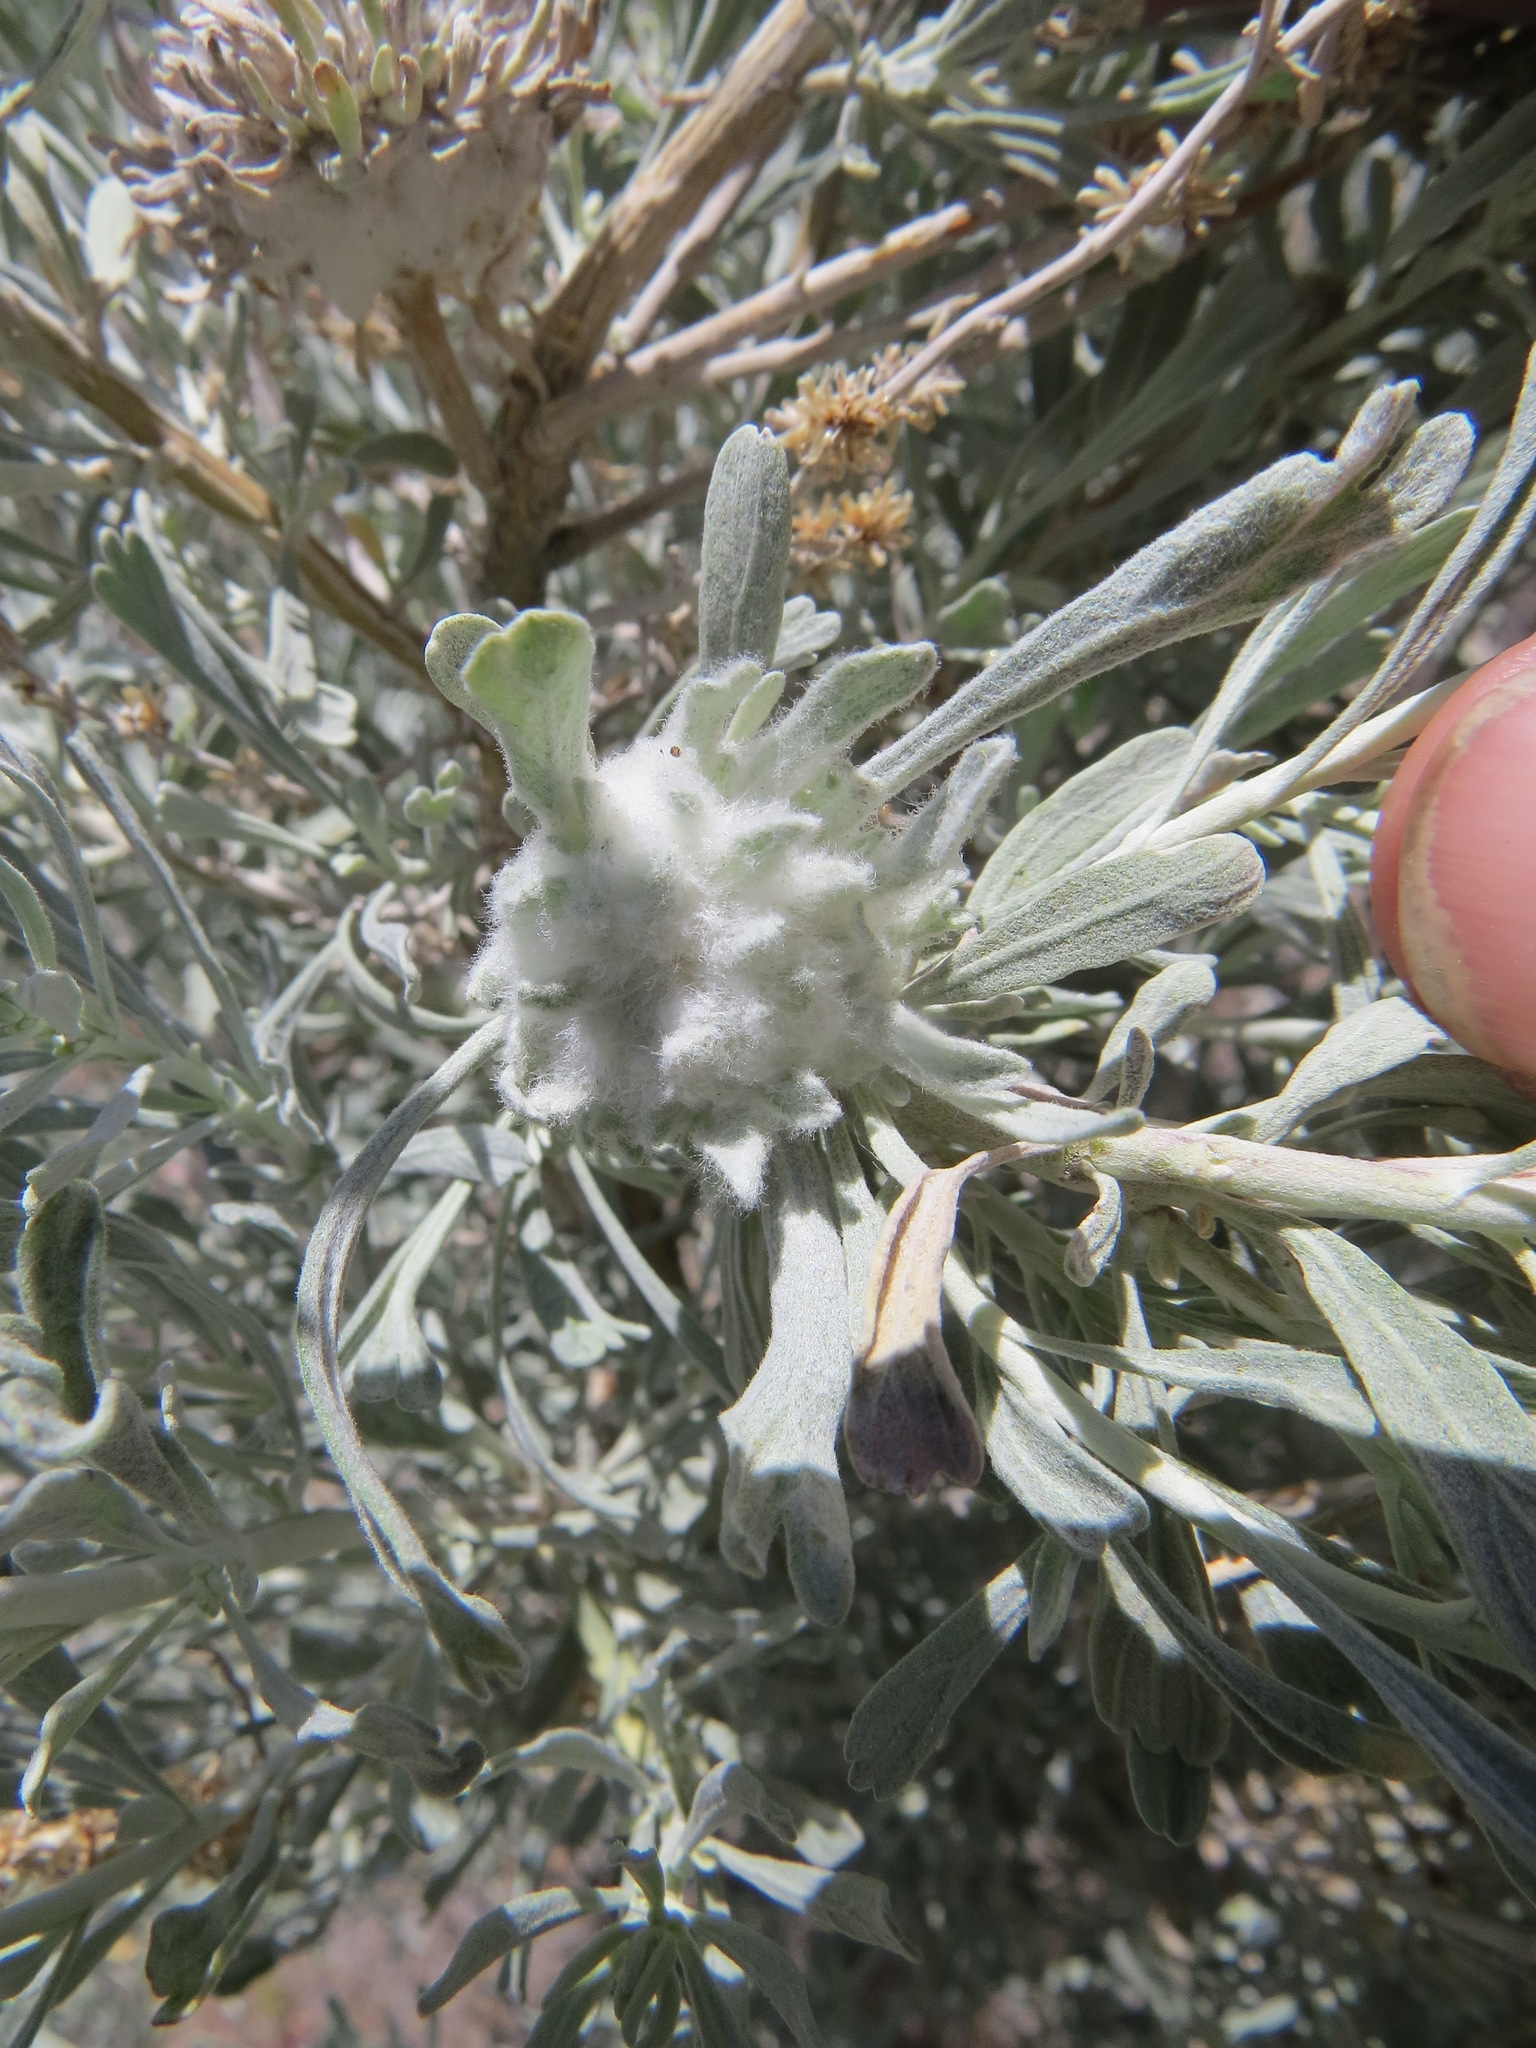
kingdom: Animalia
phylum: Arthropoda
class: Insecta
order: Diptera
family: Cecidomyiidae
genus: Rhopalomyia
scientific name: Rhopalomyia gossypina
